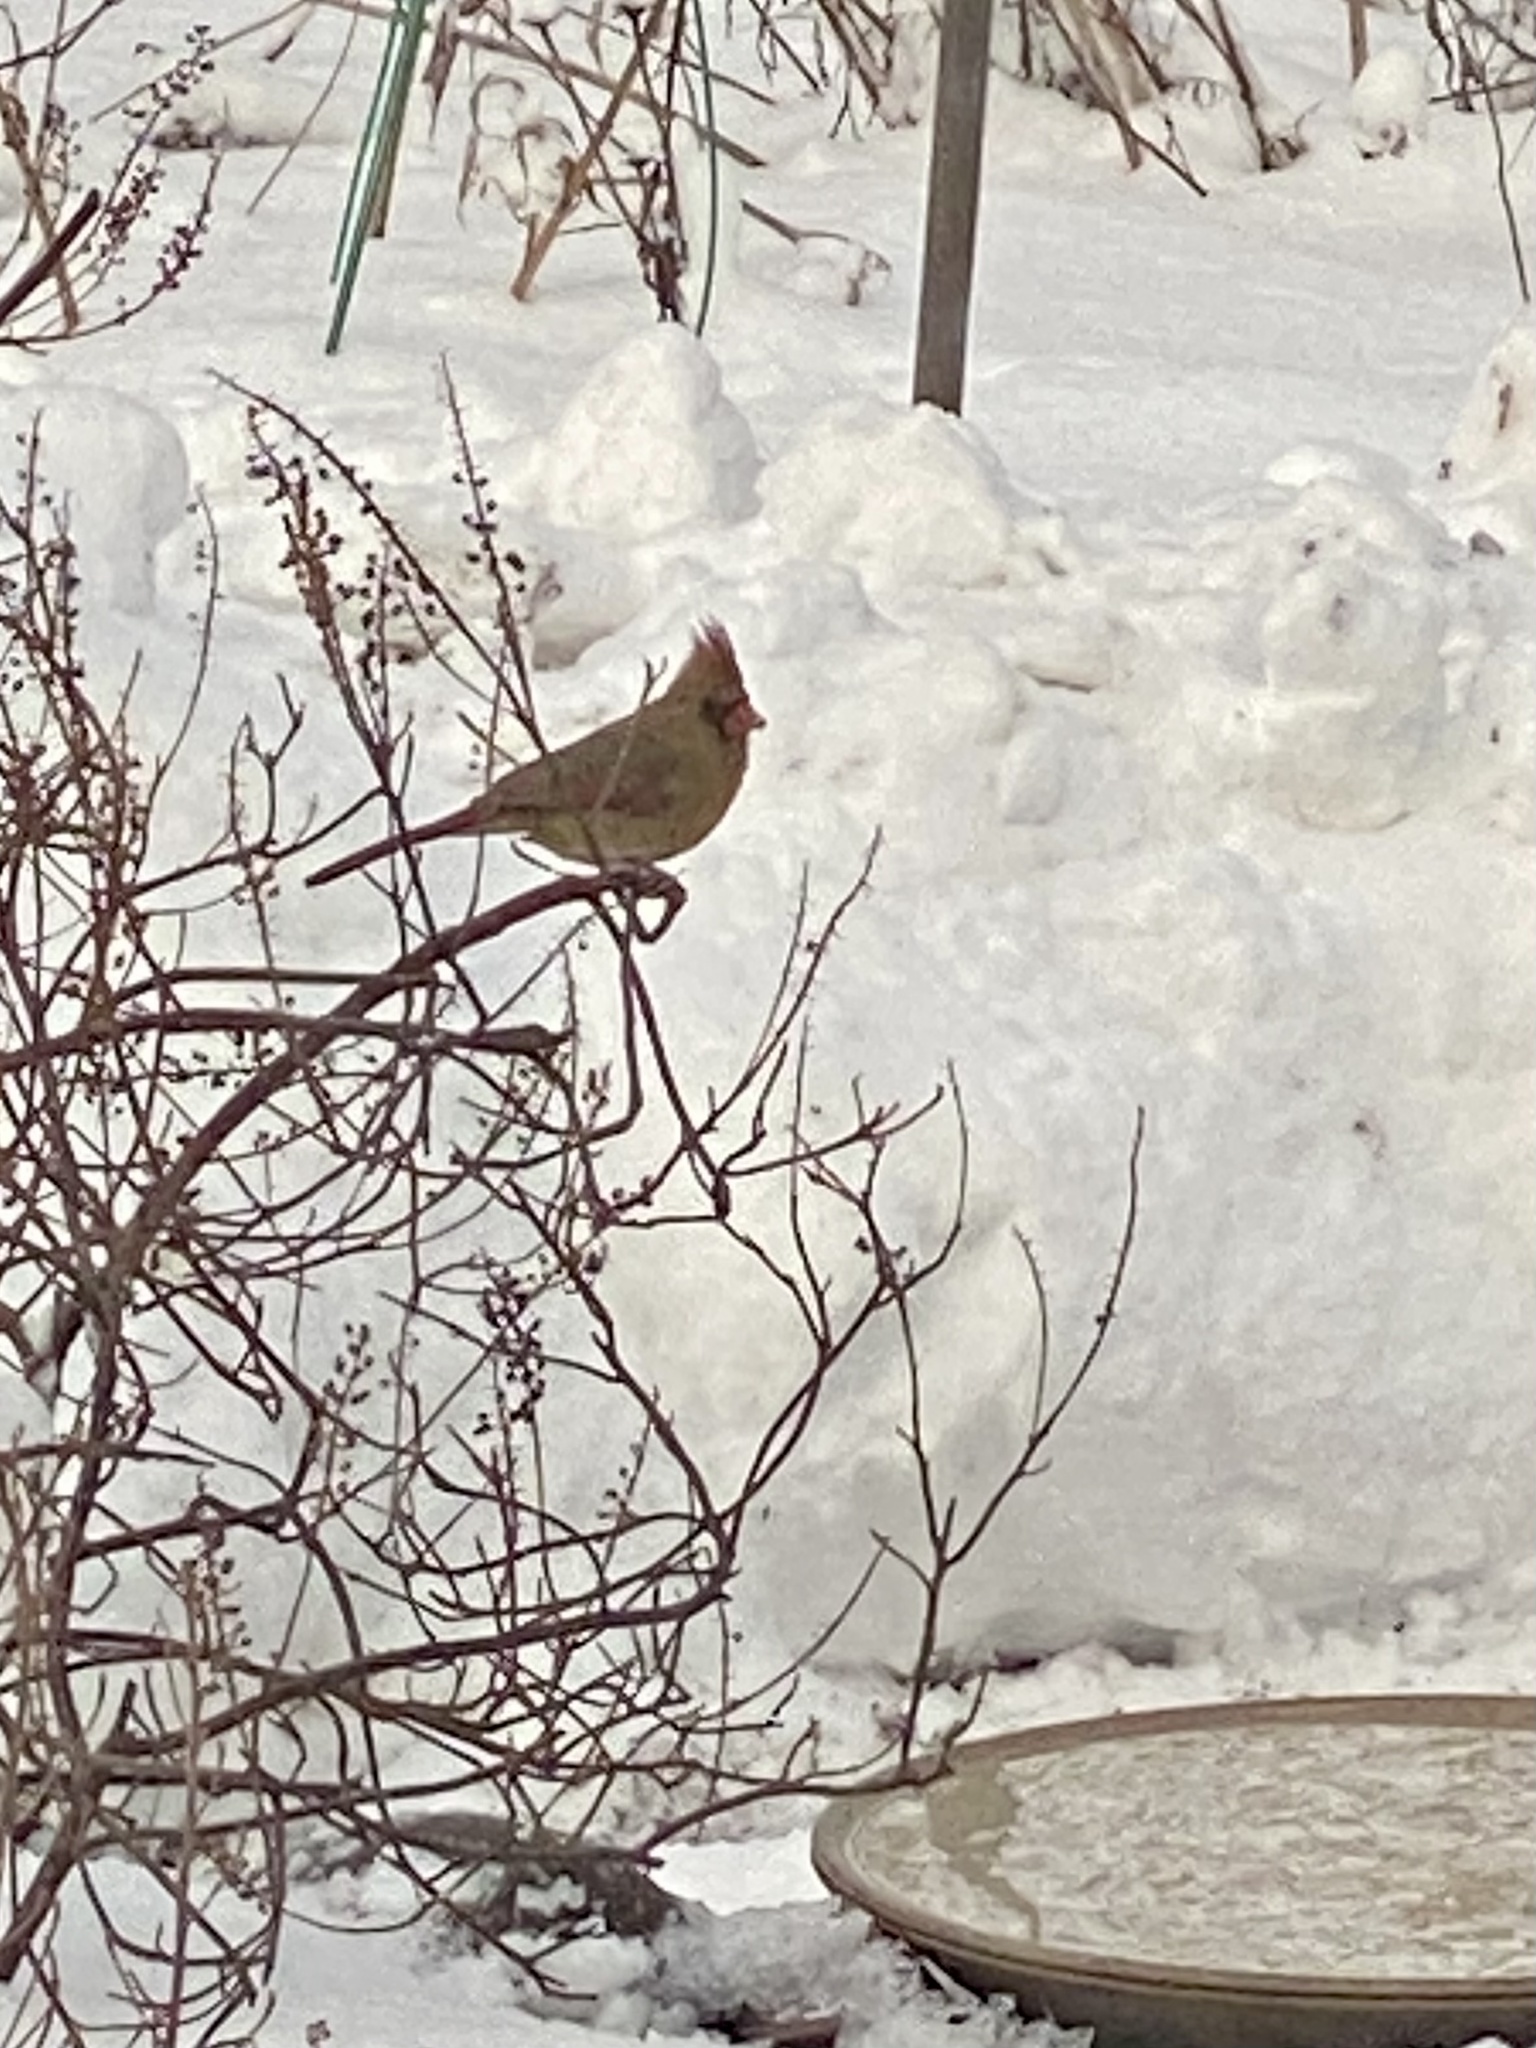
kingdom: Animalia
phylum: Chordata
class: Aves
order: Passeriformes
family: Cardinalidae
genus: Cardinalis
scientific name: Cardinalis cardinalis
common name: Northern cardinal
